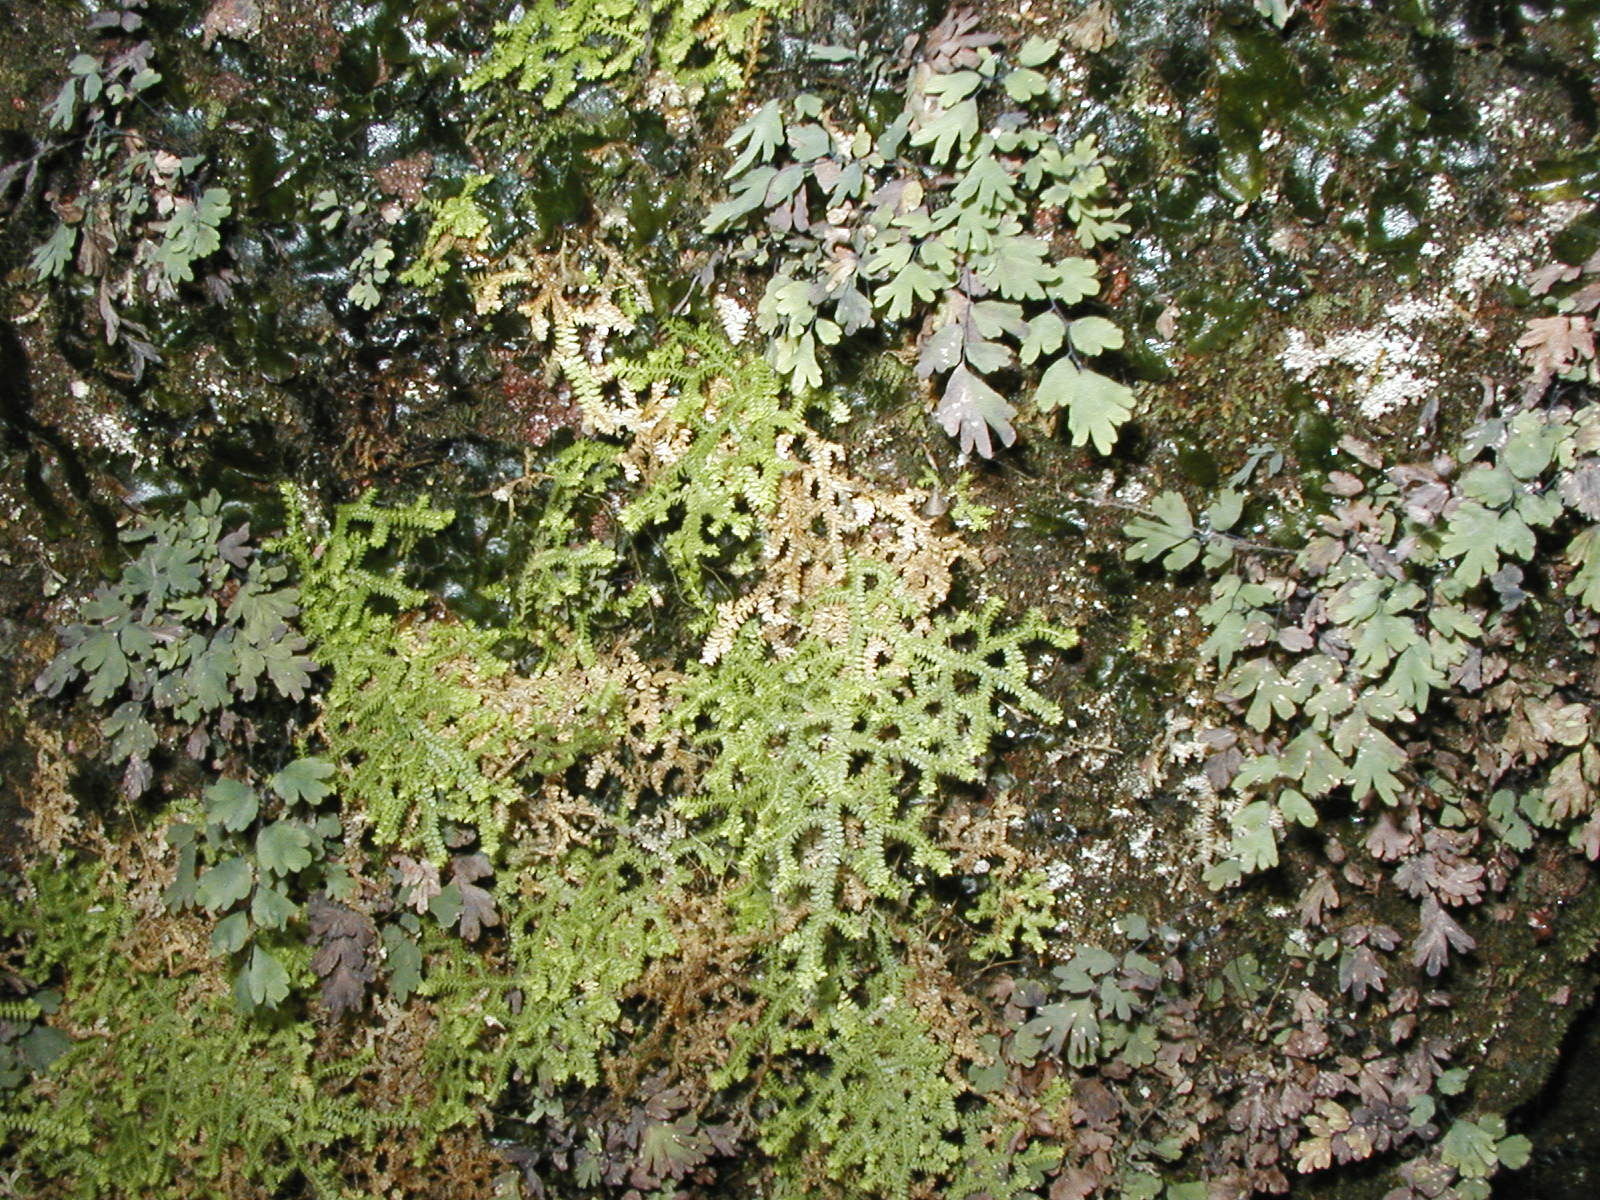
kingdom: Plantae
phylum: Tracheophyta
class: Lycopodiopsida
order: Selaginellales
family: Selaginellaceae
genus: Selaginella
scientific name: Selaginella denticulata
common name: Toothed-leaved clubmoss
